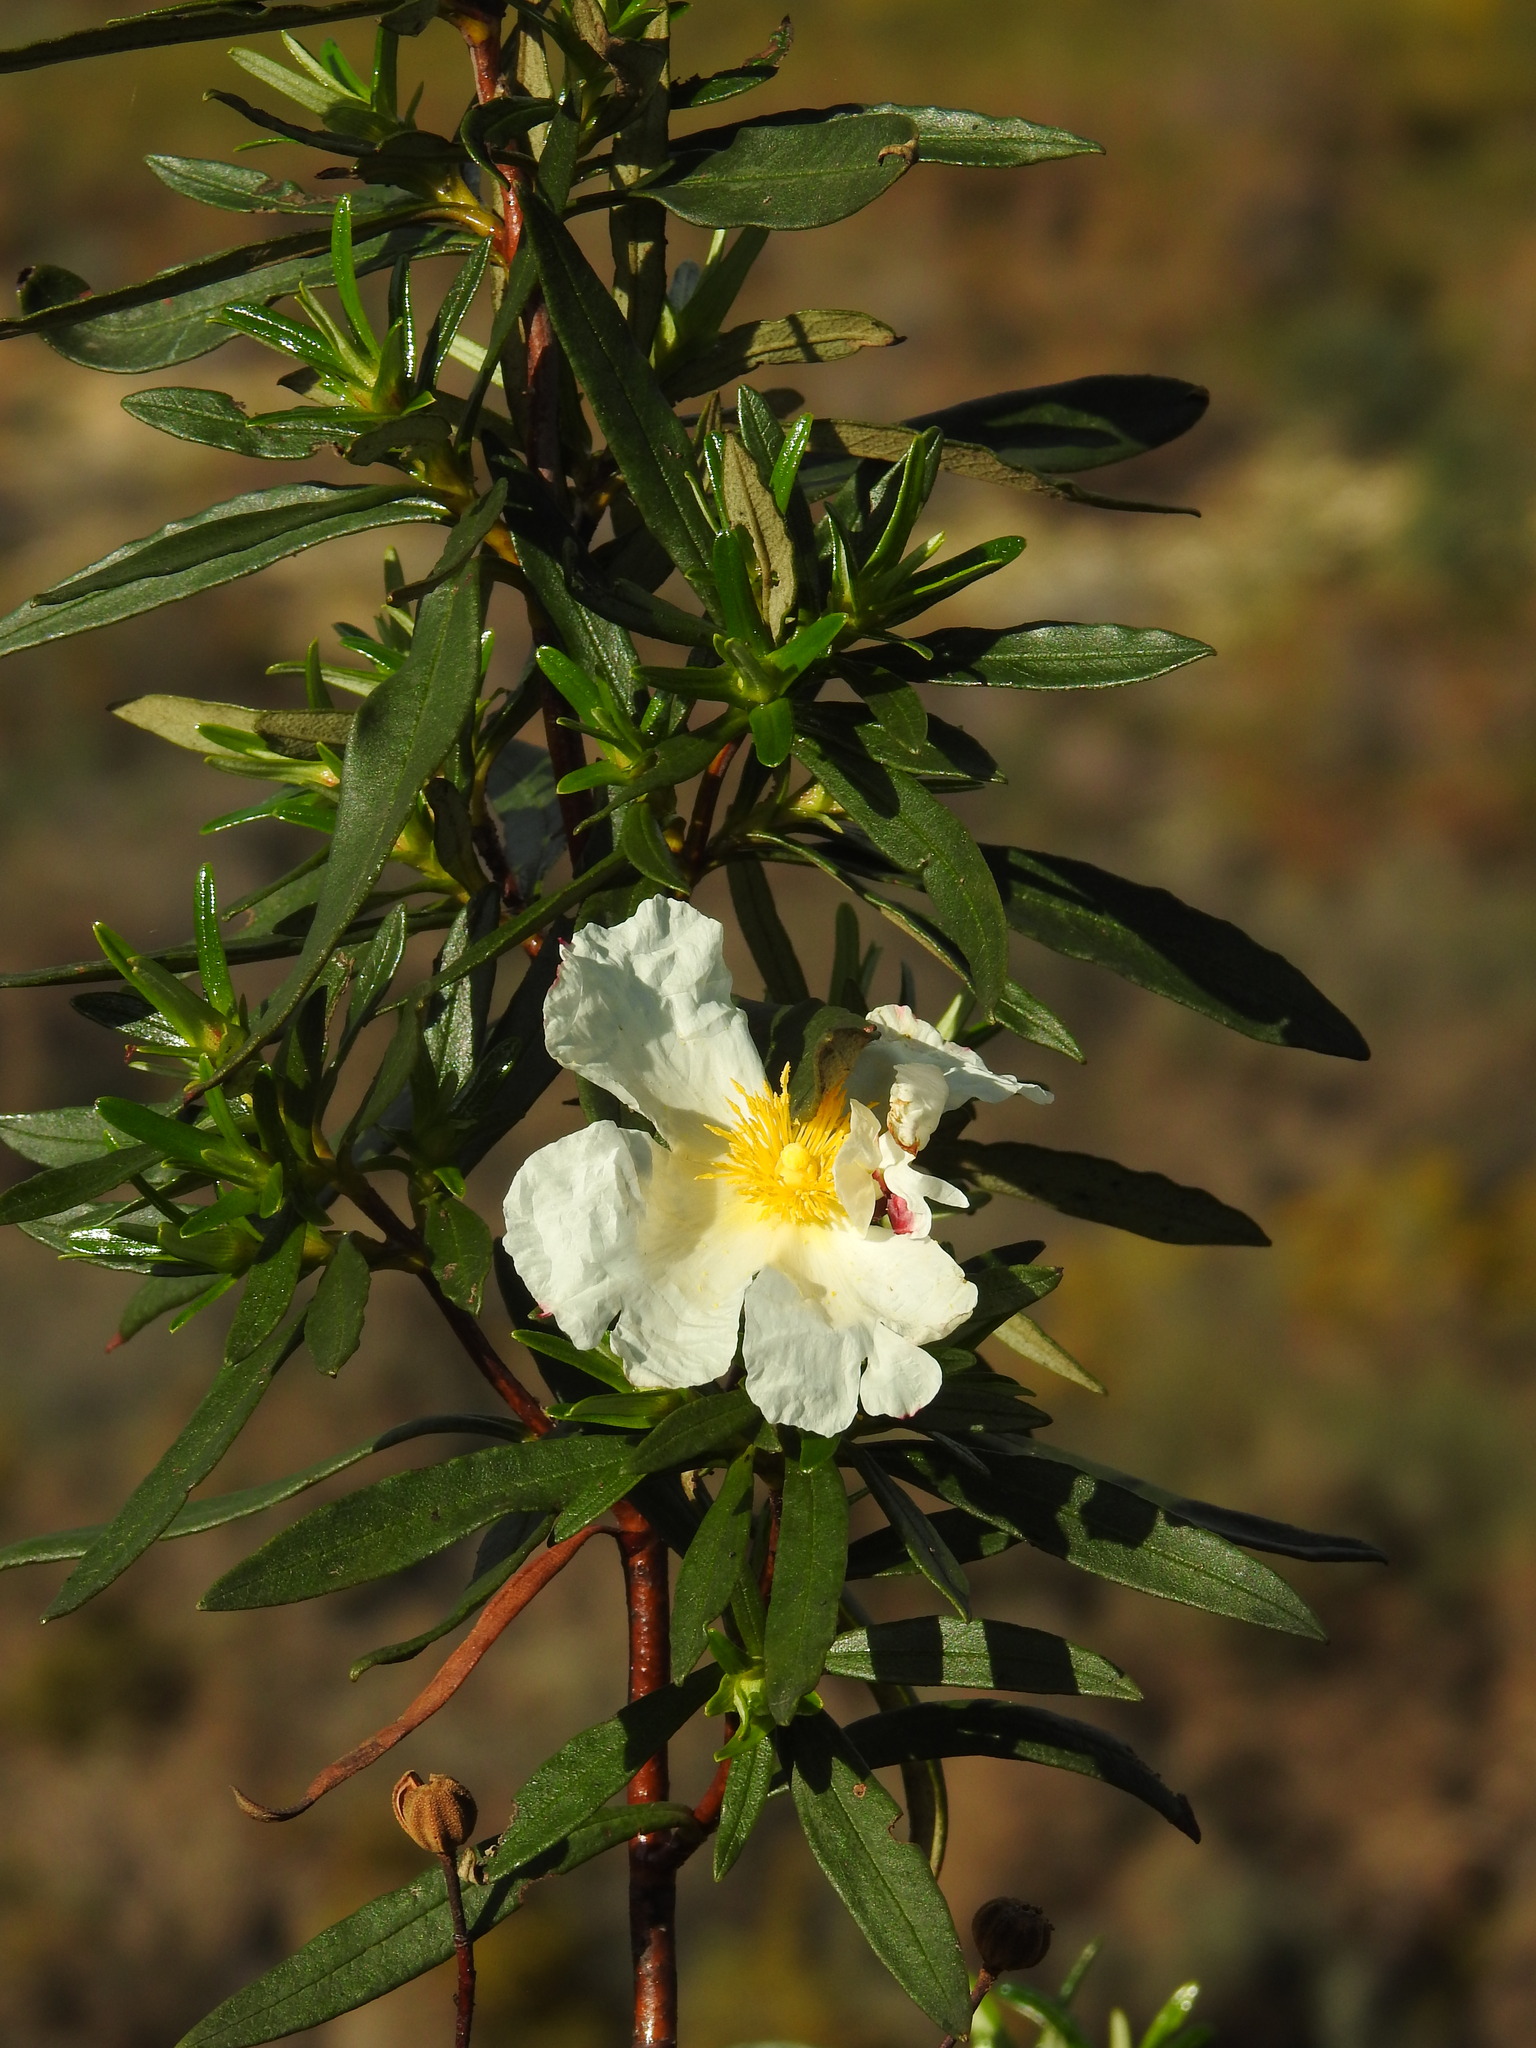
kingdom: Plantae
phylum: Tracheophyta
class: Magnoliopsida
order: Malvales
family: Cistaceae
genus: Cistus
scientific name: Cistus ladanifer
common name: Common gum cistus
